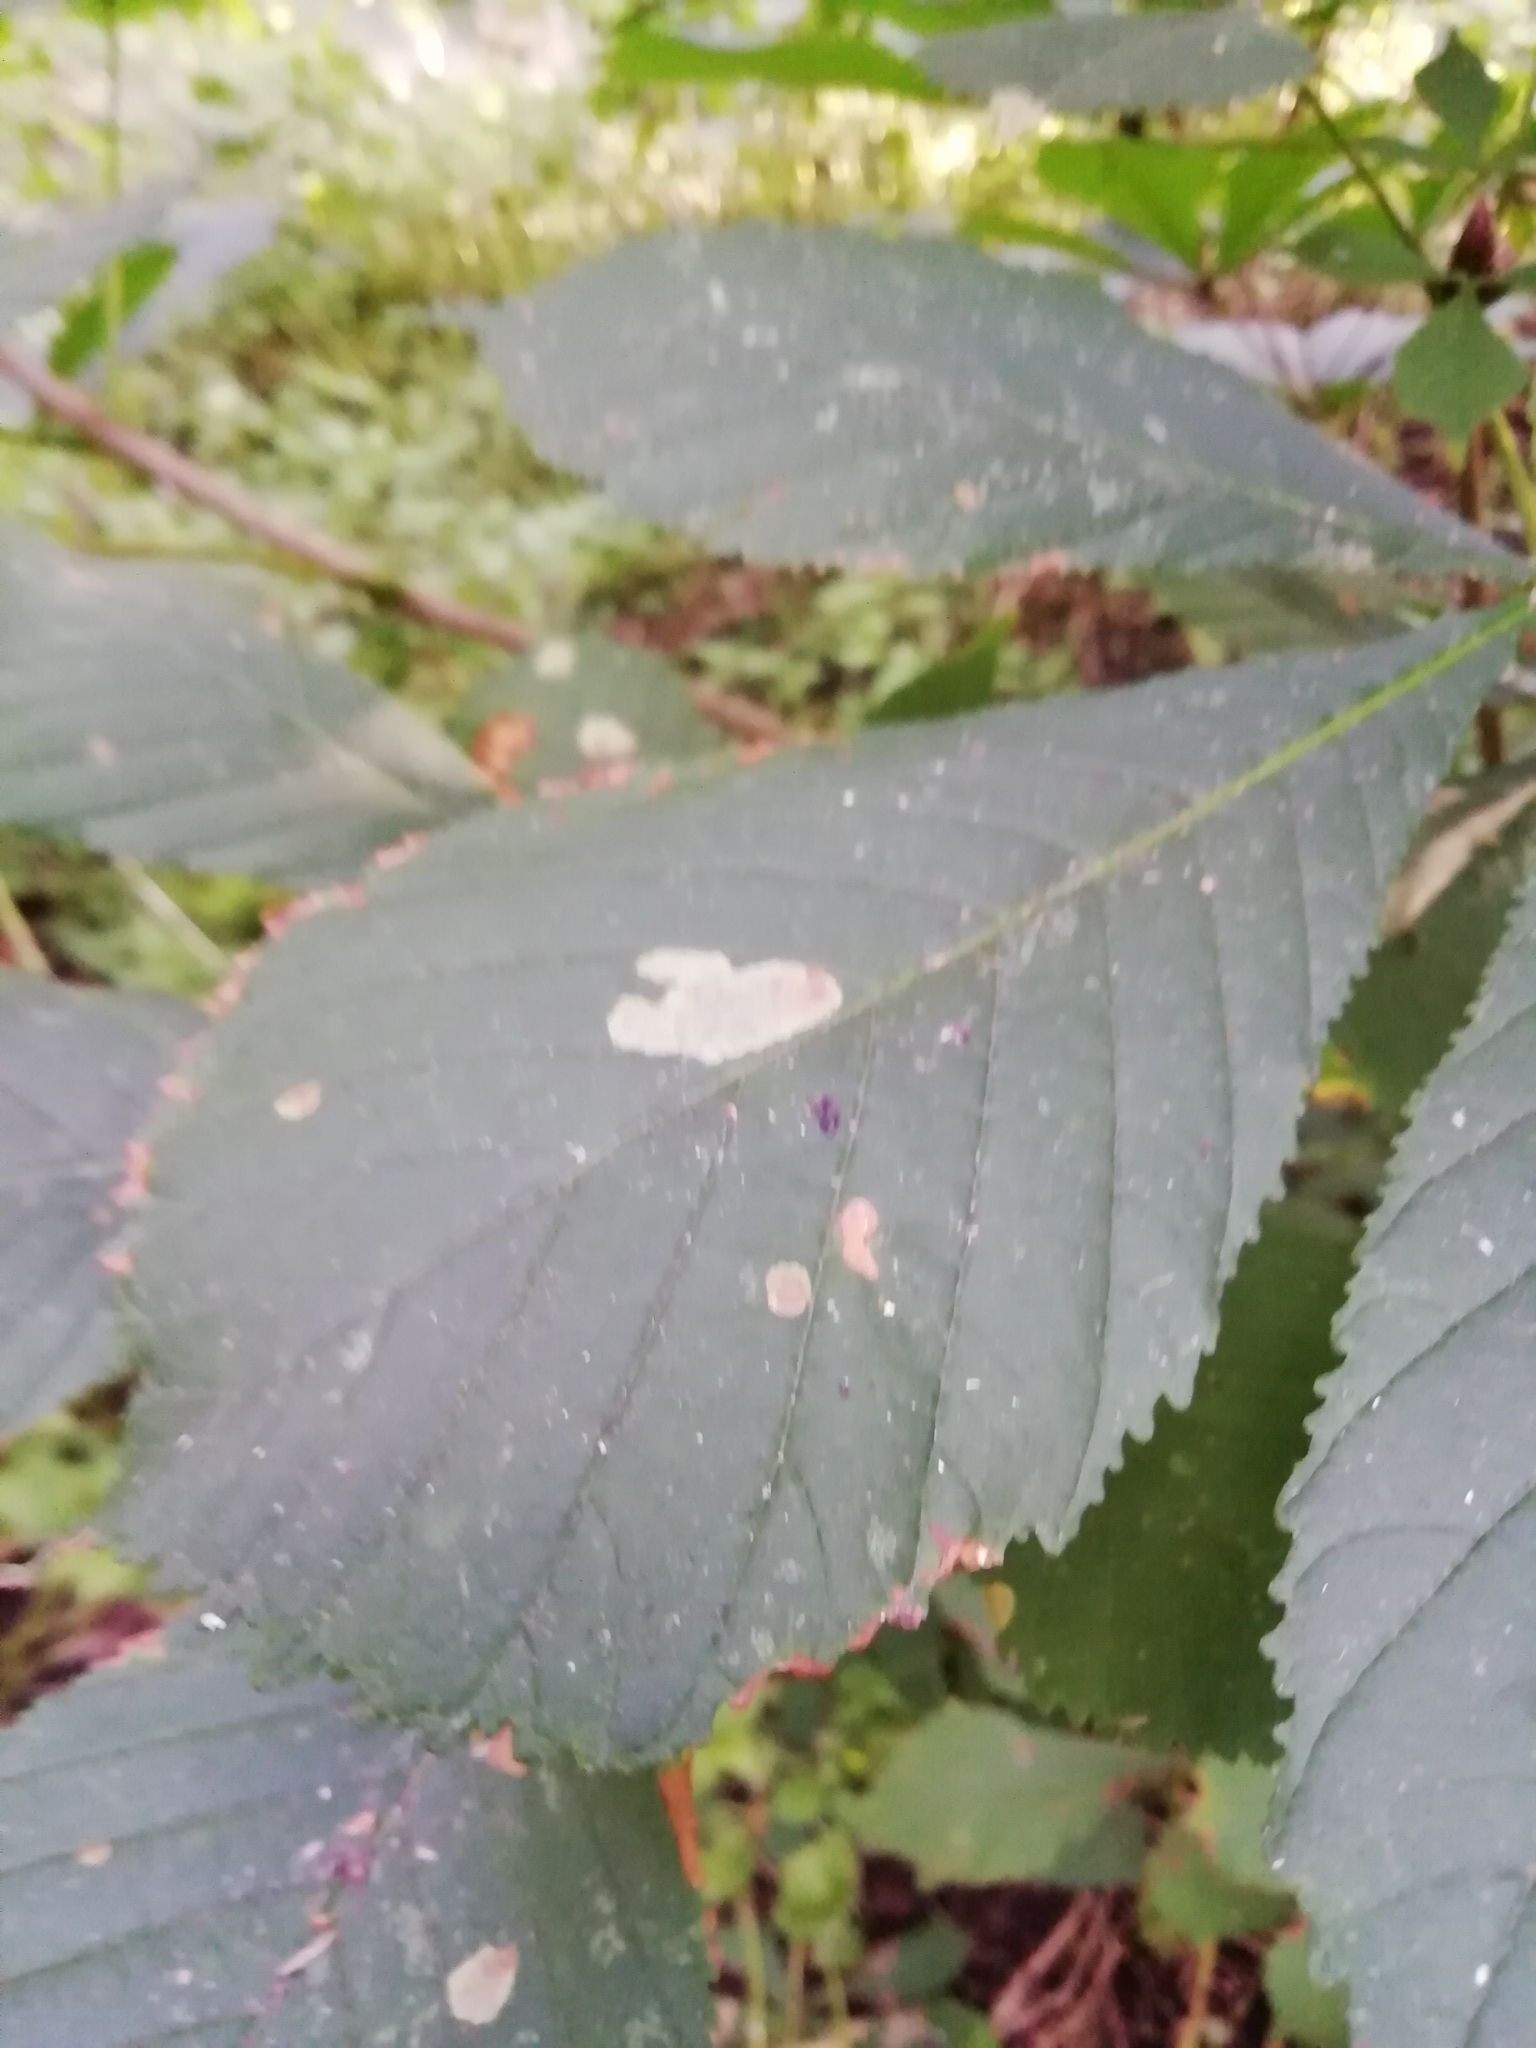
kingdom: Animalia
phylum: Arthropoda
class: Insecta
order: Lepidoptera
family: Gracillariidae
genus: Cameraria
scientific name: Cameraria ohridella
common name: Horse-chestnut leaf-miner
